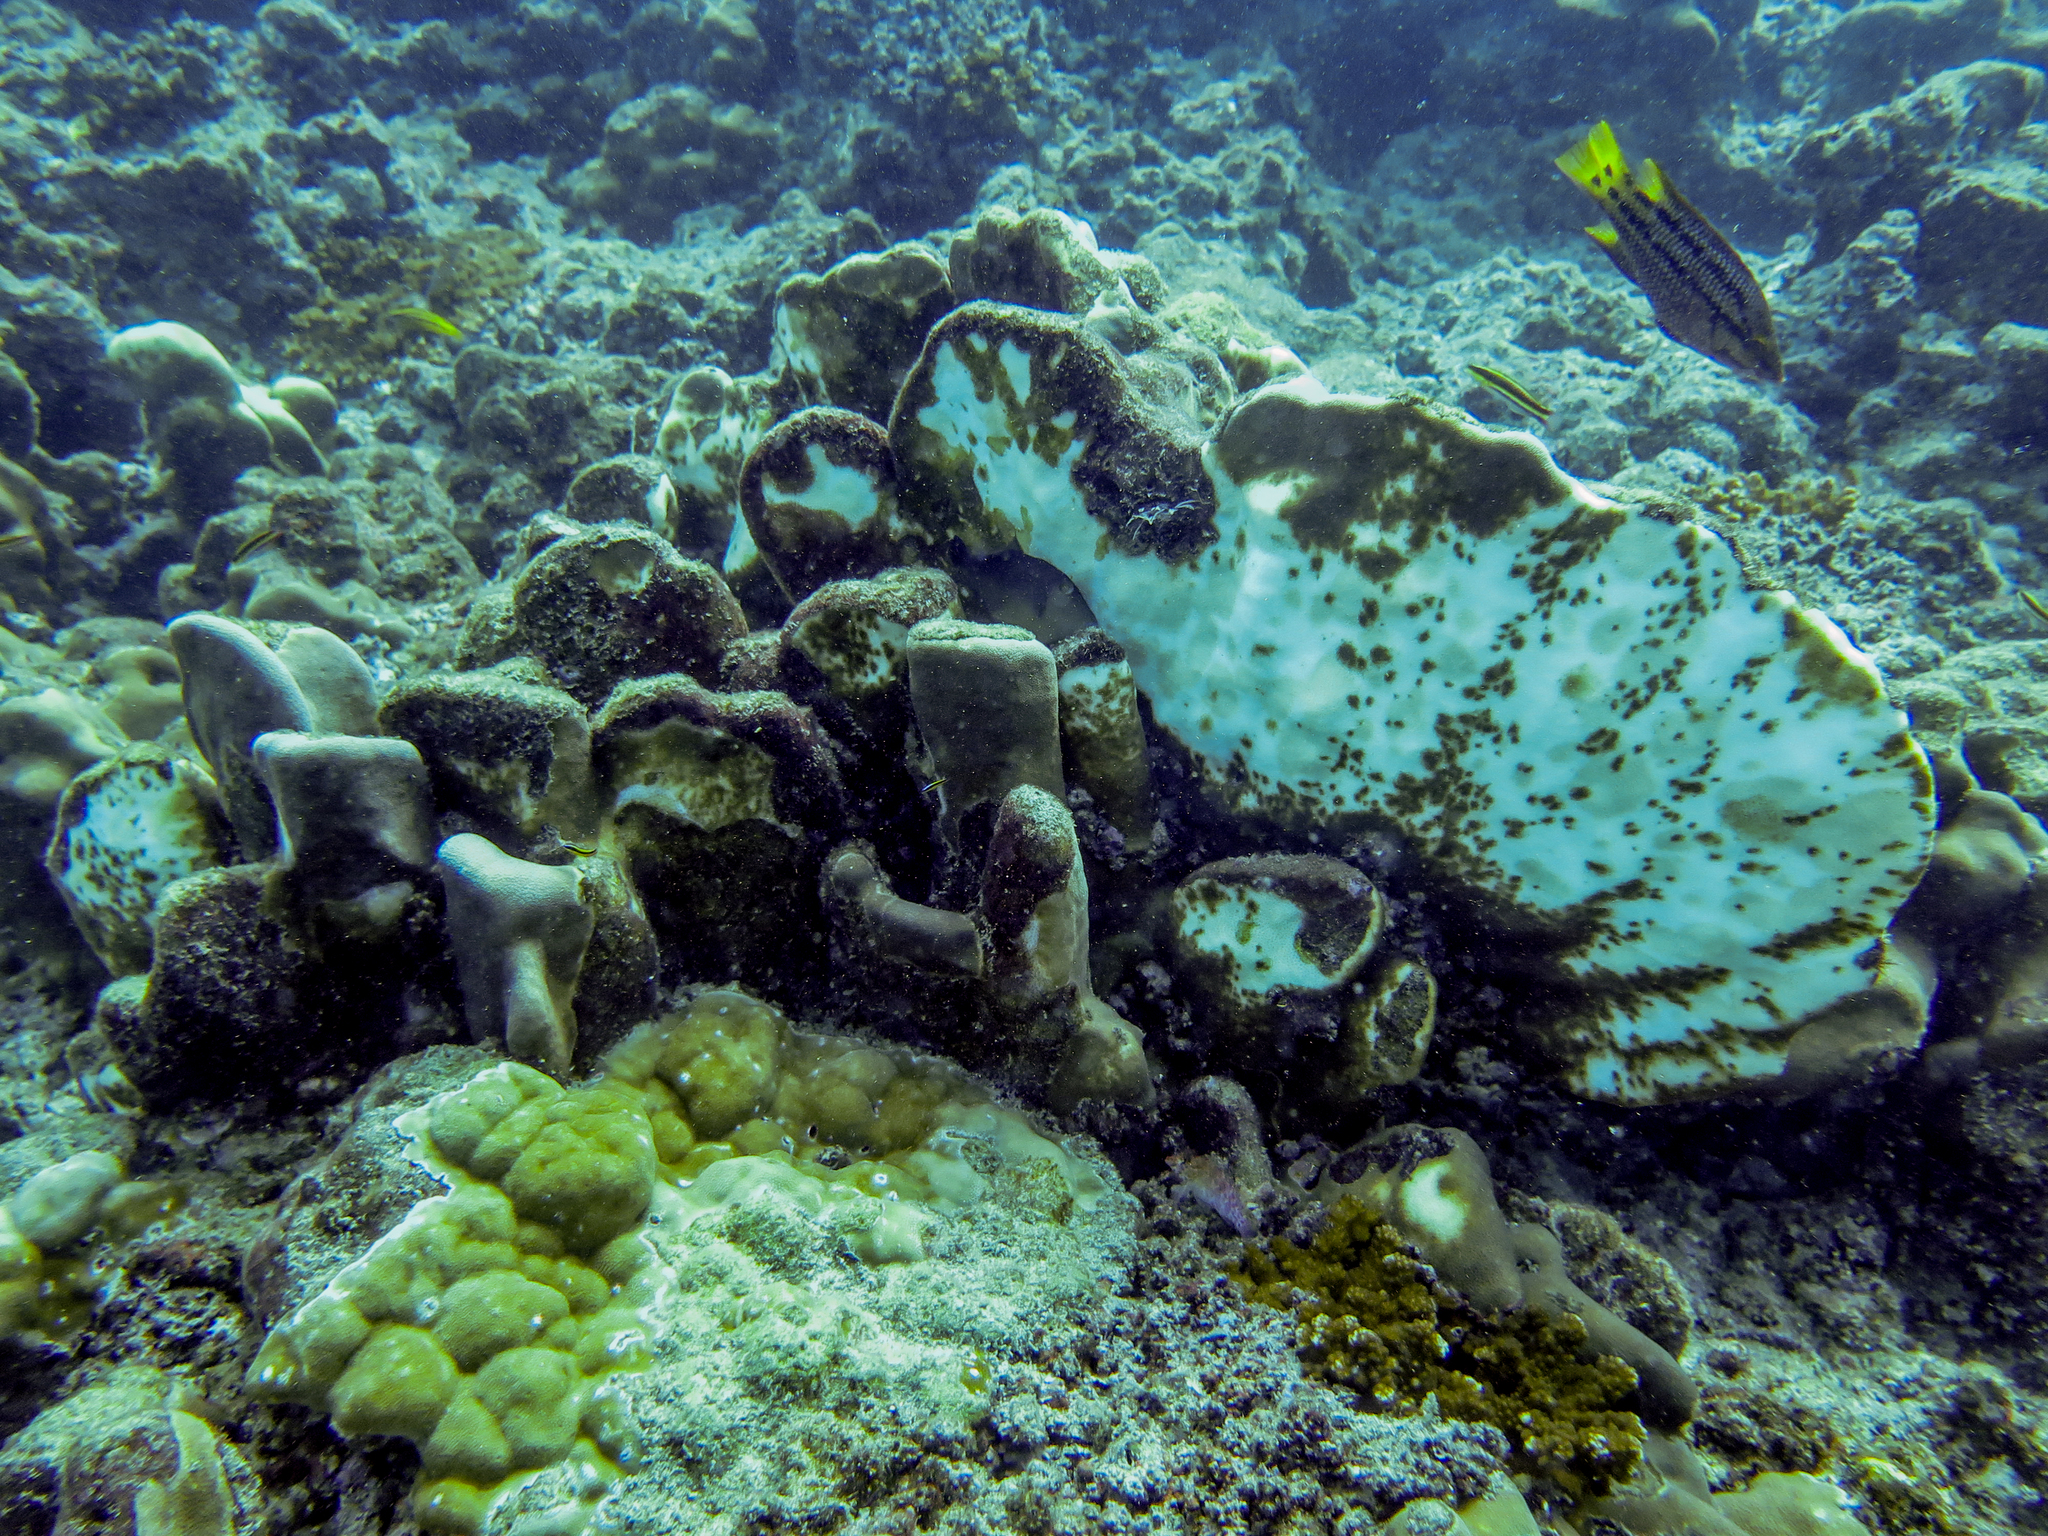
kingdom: Animalia
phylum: Chordata
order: Perciformes
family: Cirrhitidae
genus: Cirrhitichthys
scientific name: Cirrhitichthys oxycephalus
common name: Spotted hawkfish
